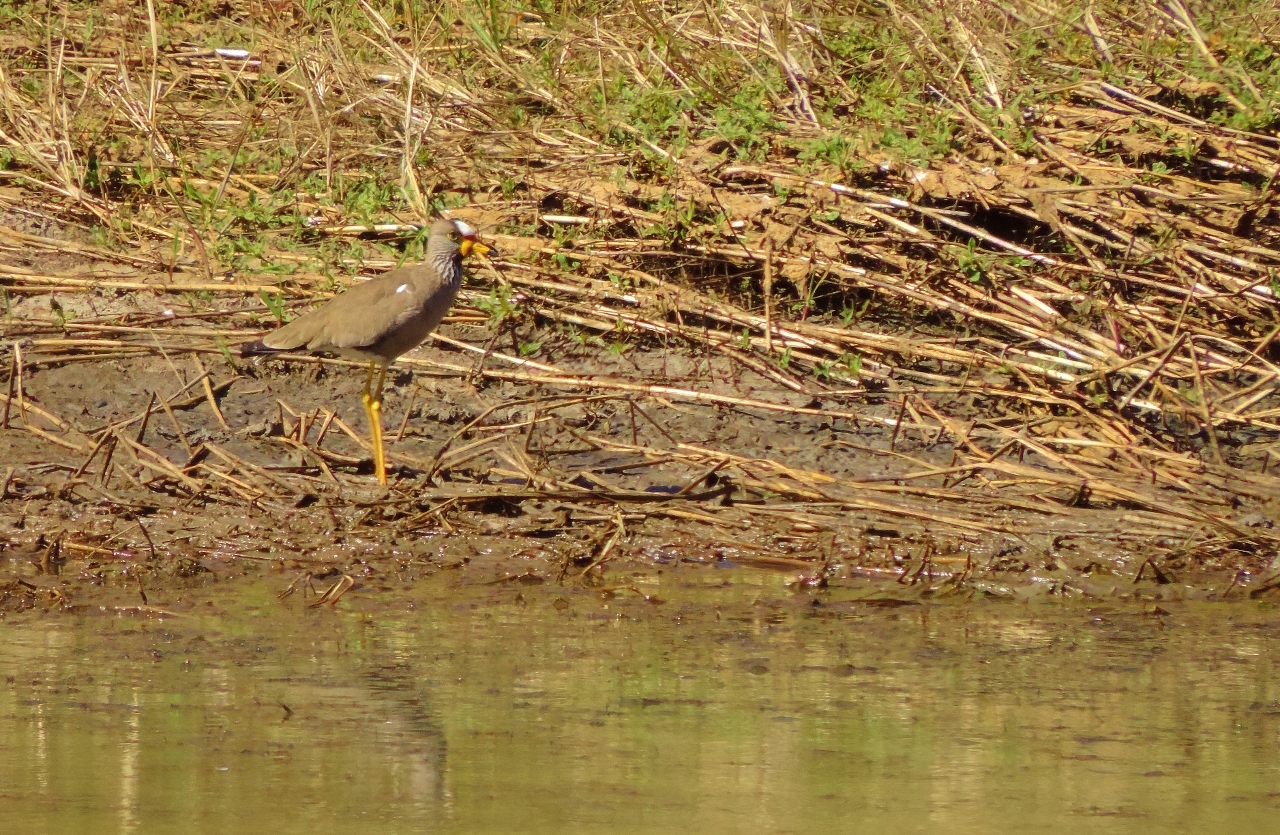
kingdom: Animalia
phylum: Chordata
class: Aves
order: Charadriiformes
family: Charadriidae
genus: Vanellus
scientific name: Vanellus senegallus
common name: African wattled lapwing
